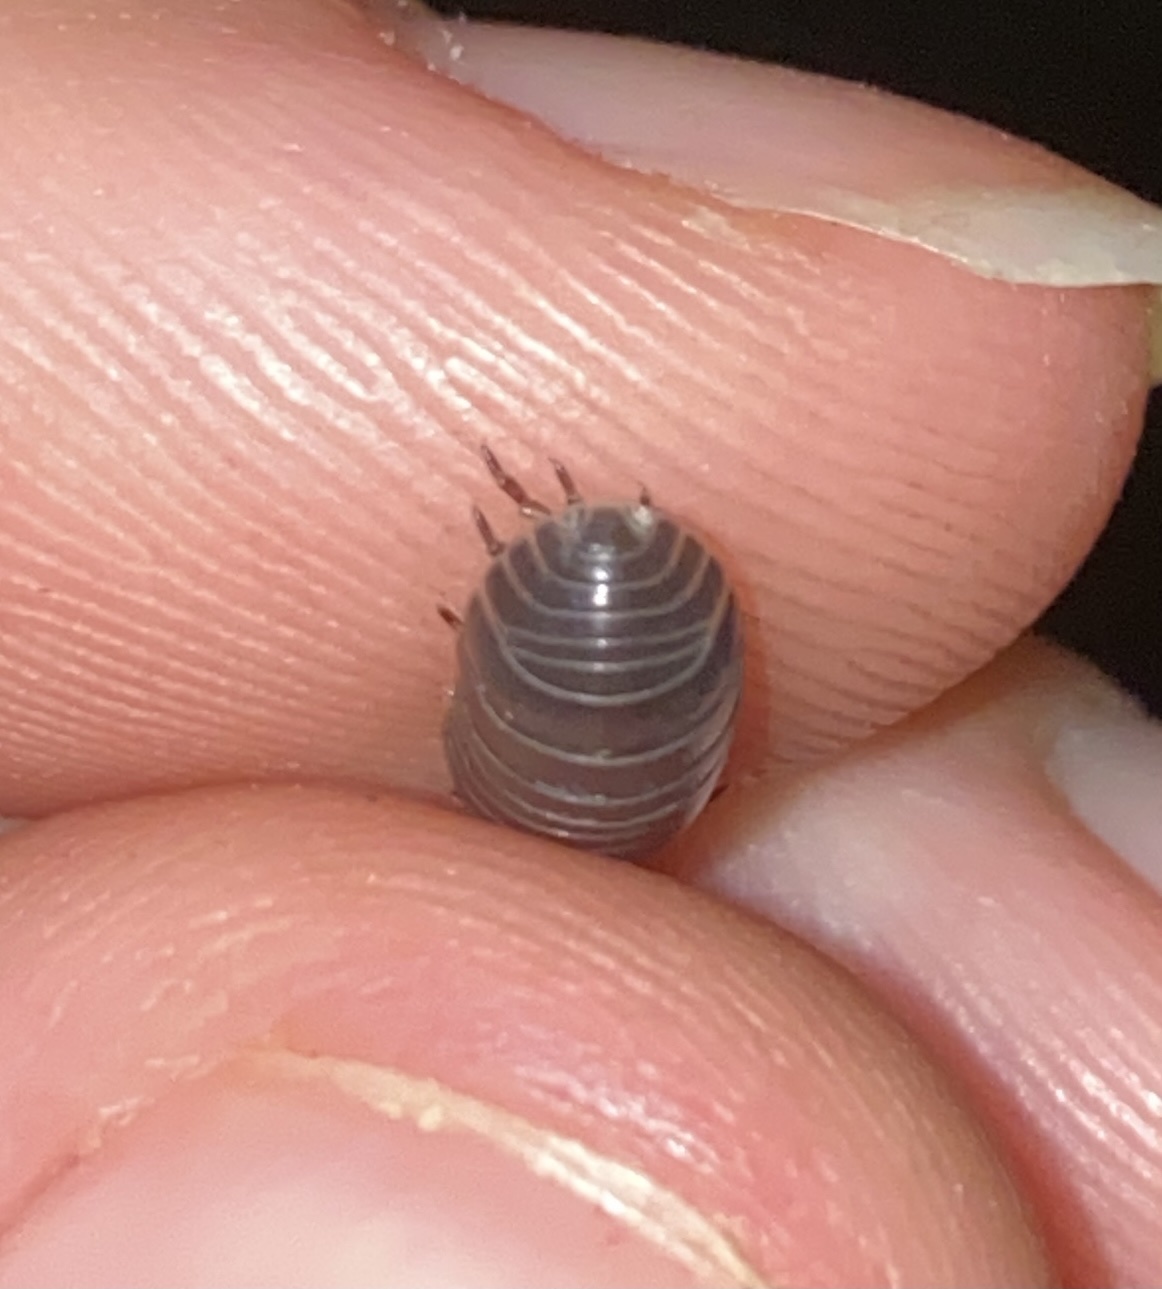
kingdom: Animalia
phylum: Arthropoda
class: Malacostraca
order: Isopoda
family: Armadillidiidae
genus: Armadillidium
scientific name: Armadillidium vulgare
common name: Common pill woodlouse
